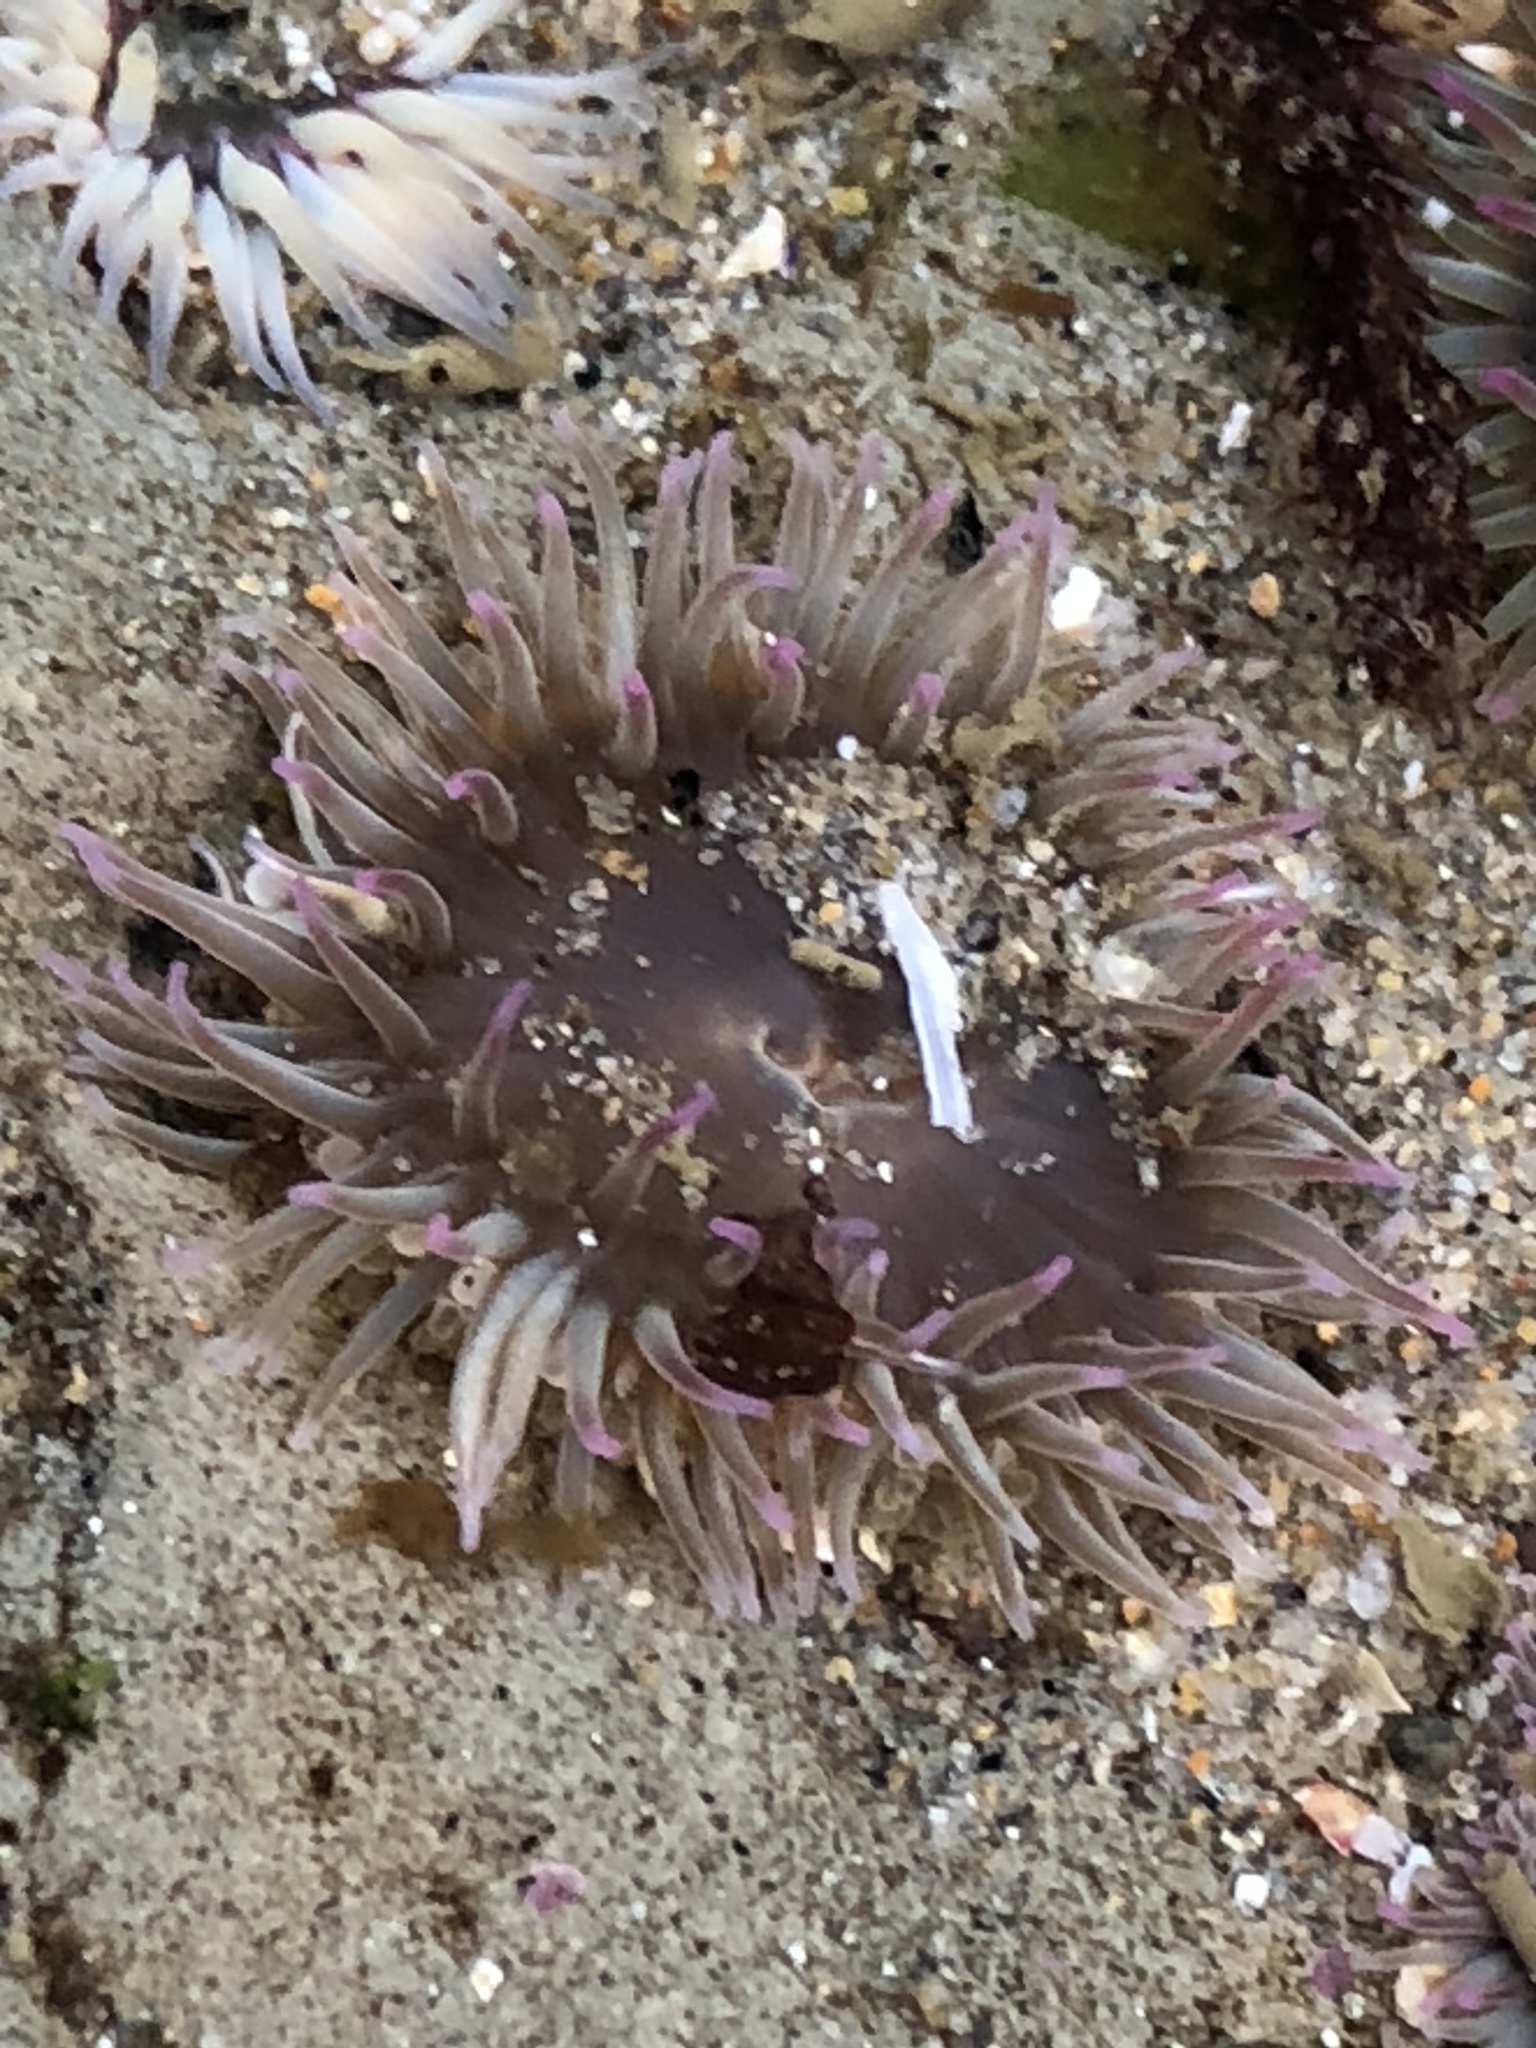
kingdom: Animalia
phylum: Cnidaria
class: Anthozoa
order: Actiniaria
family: Actiniidae
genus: Anthopleura
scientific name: Anthopleura elegantissima
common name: Clonal anemone
